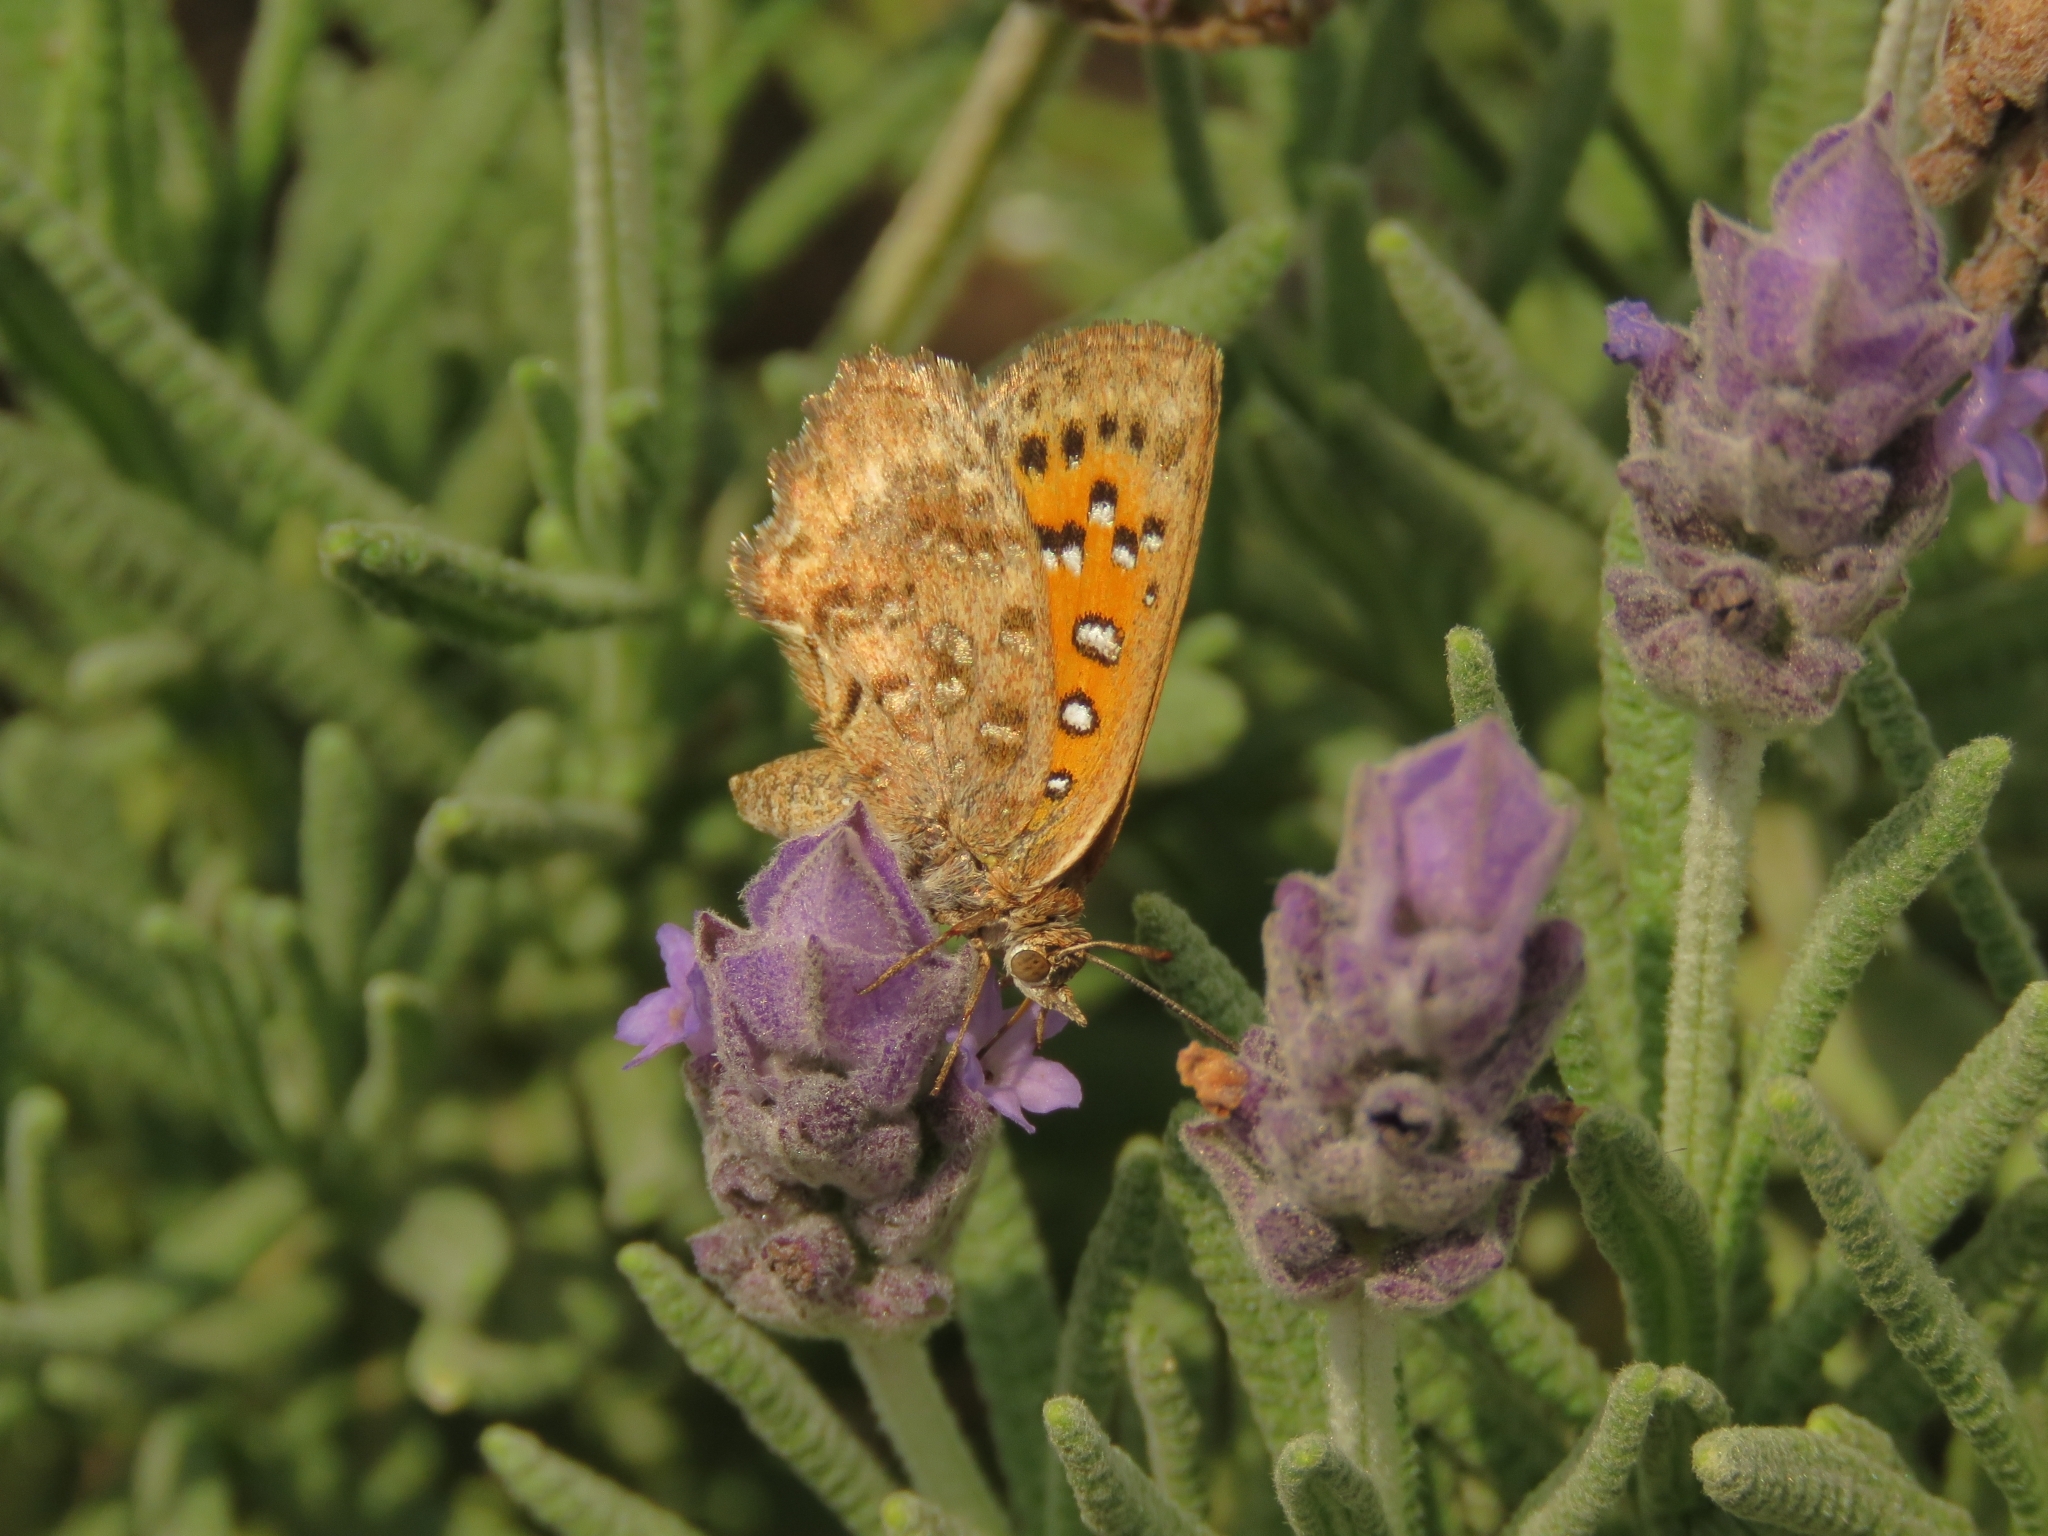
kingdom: Animalia
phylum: Arthropoda
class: Insecta
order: Lepidoptera
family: Lycaenidae
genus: Aloeides
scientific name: Aloeides pierus
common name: Dull copper
